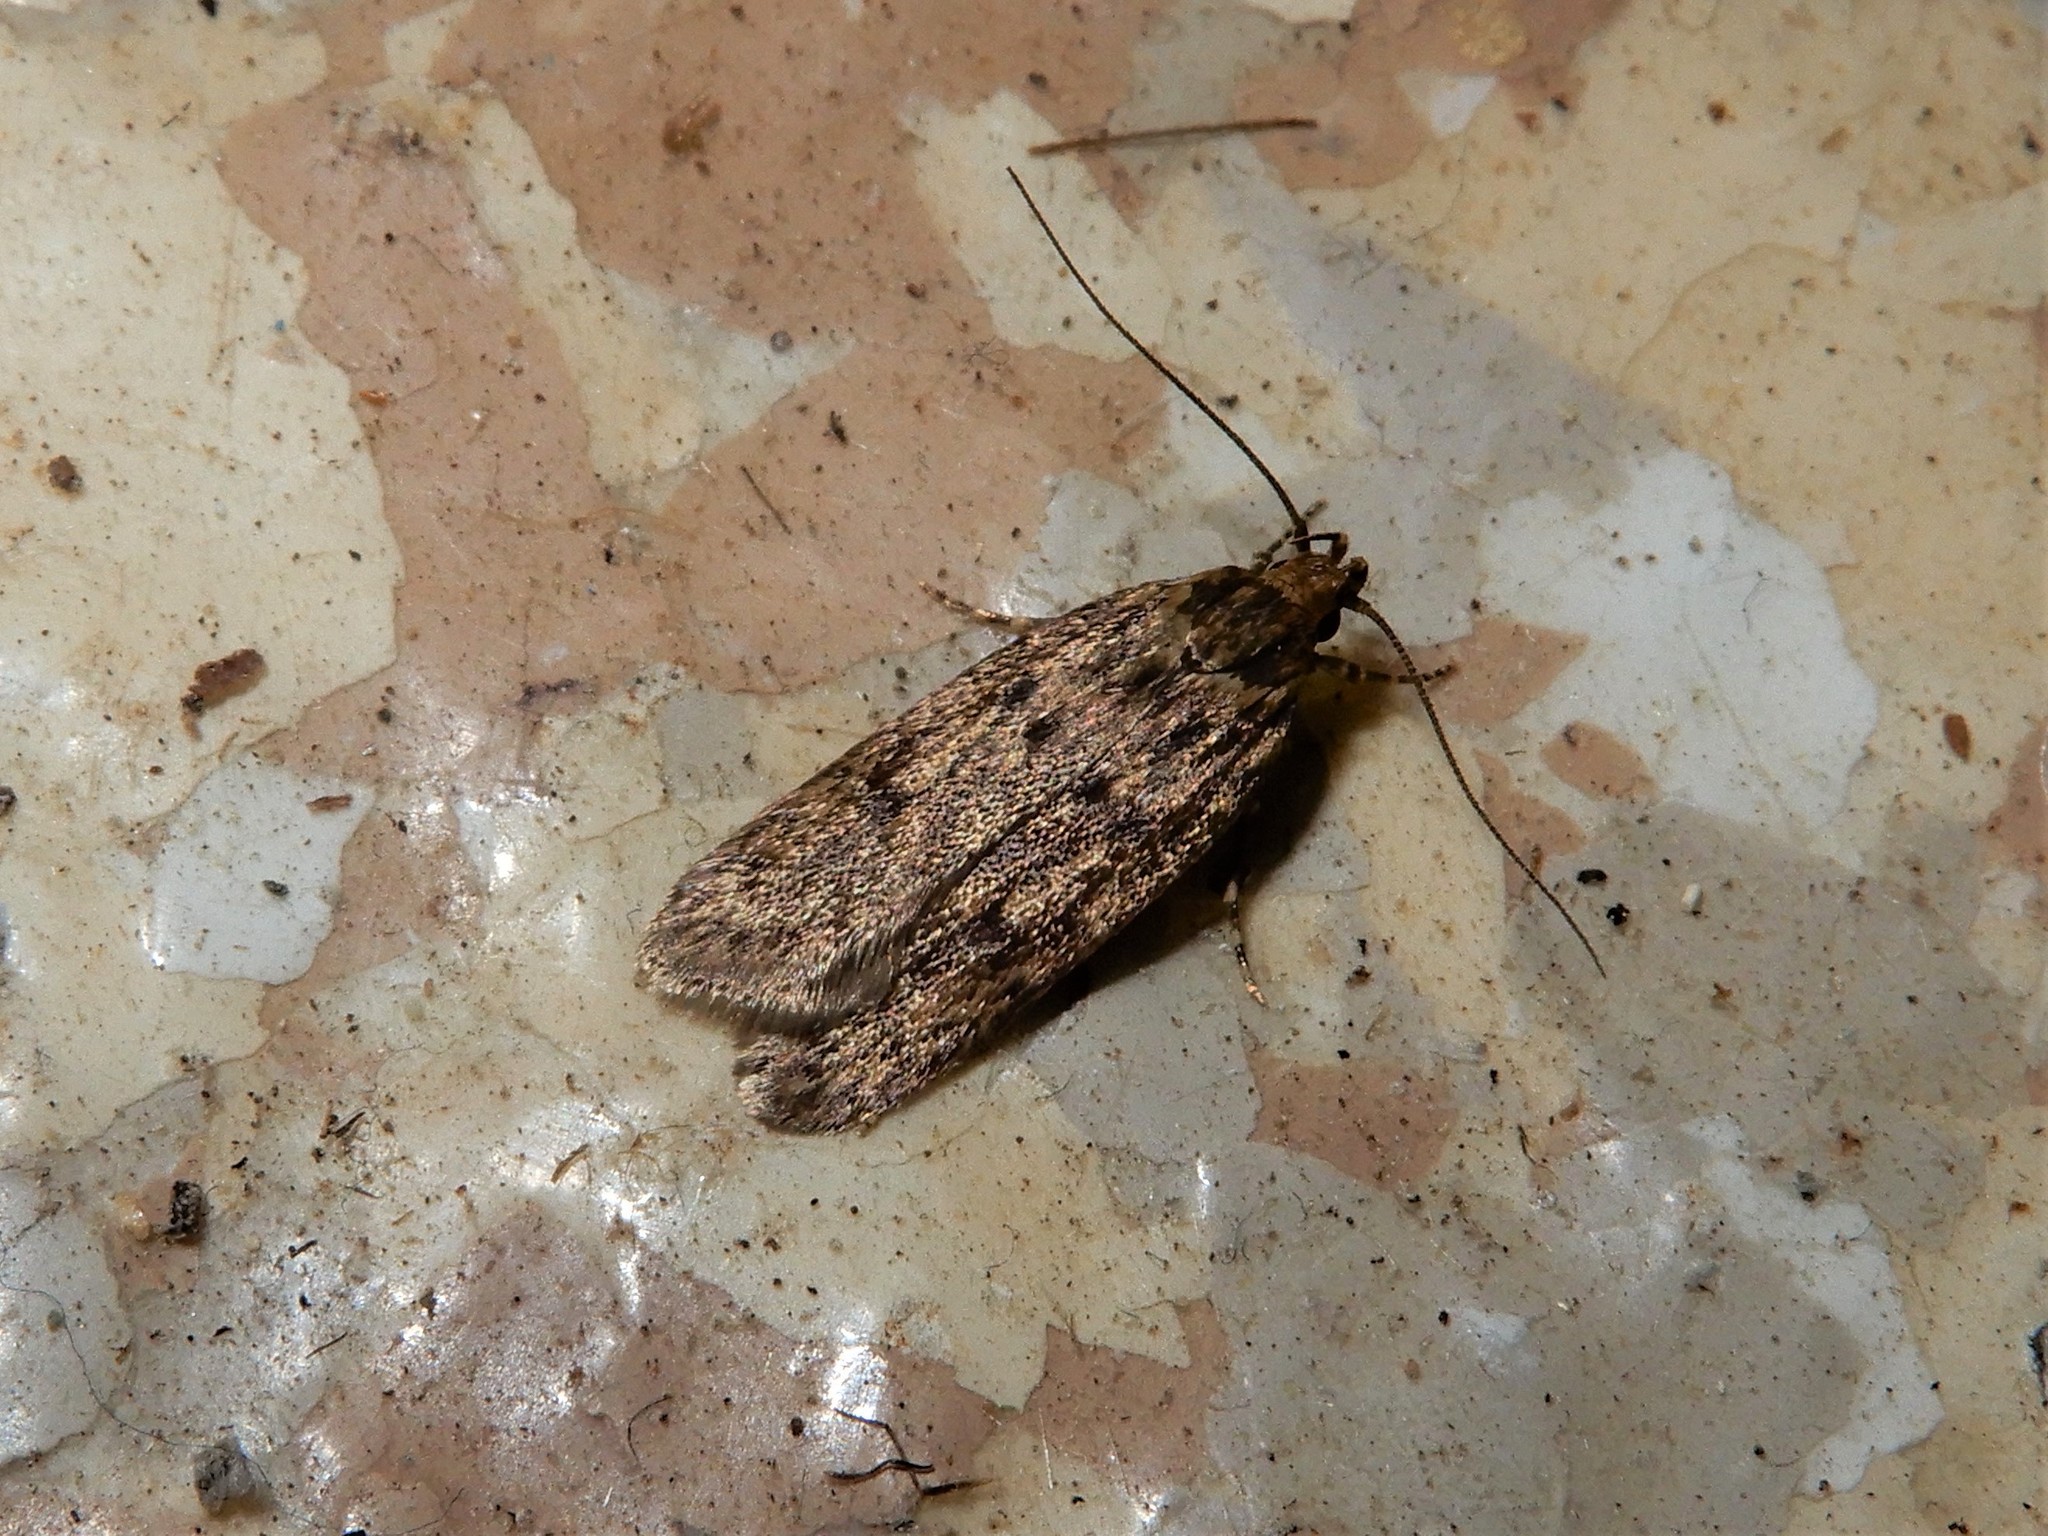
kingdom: Animalia
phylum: Arthropoda
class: Insecta
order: Lepidoptera
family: Oecophoridae
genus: Hofmannophila
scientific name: Hofmannophila pseudospretella
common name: Brown house moth
